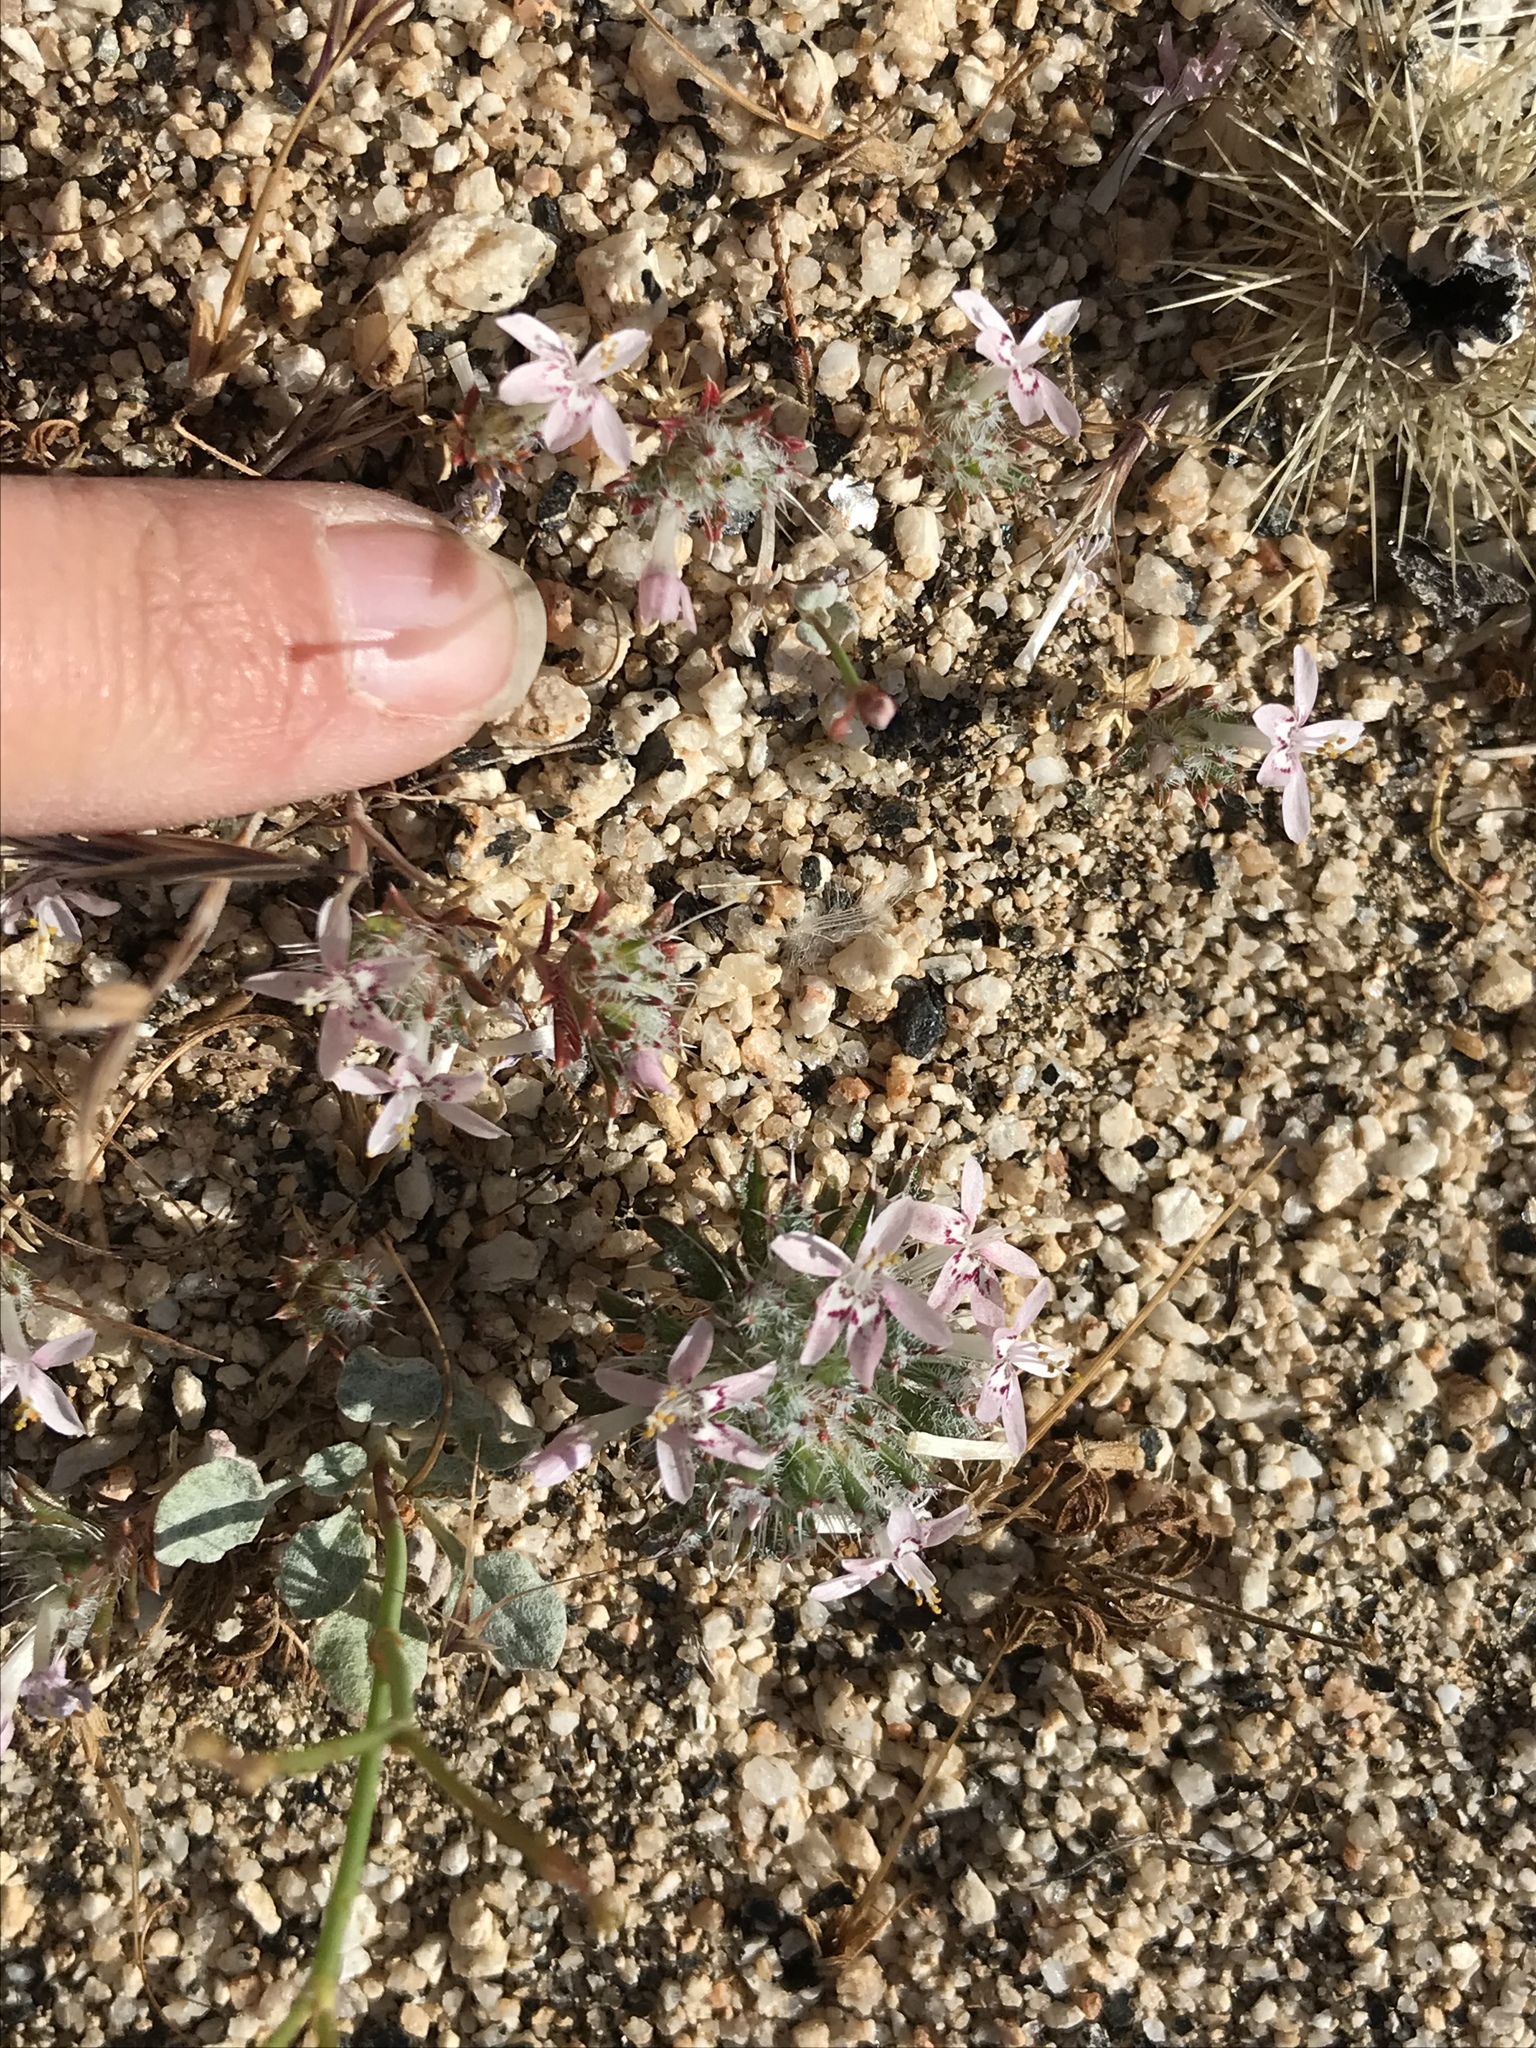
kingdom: Plantae
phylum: Tracheophyta
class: Magnoliopsida
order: Ericales
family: Polemoniaceae
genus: Loeseliastrum
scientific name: Loeseliastrum schottii
